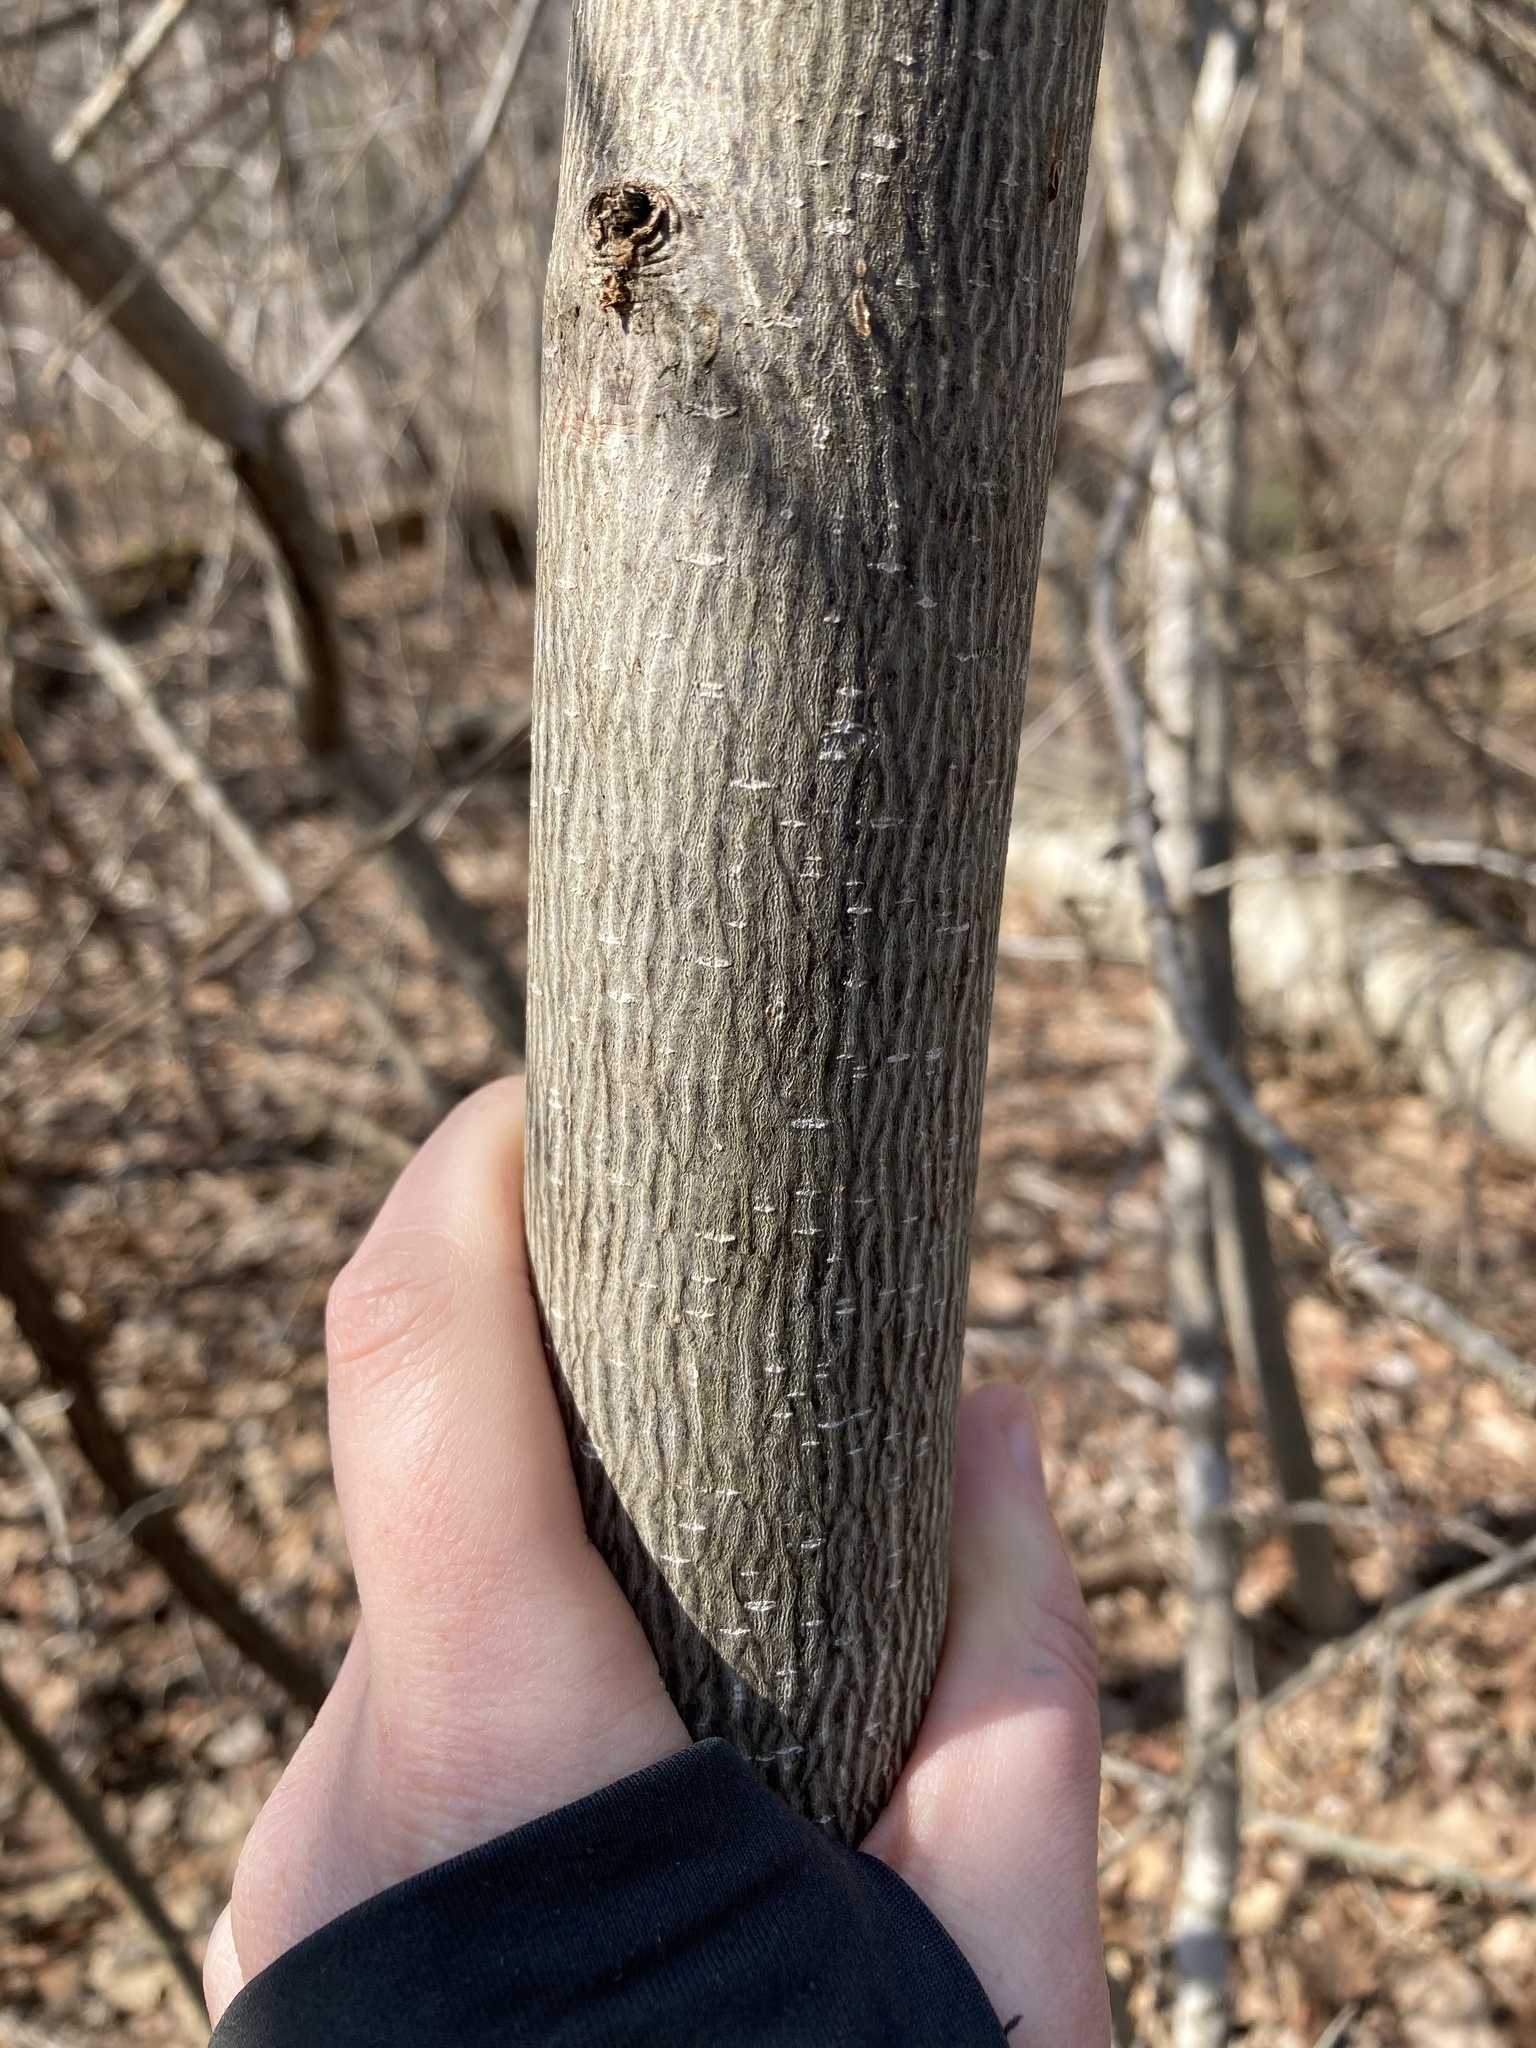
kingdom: Plantae
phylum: Tracheophyta
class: Magnoliopsida
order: Magnoliales
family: Magnoliaceae
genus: Liriodendron
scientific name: Liriodendron tulipifera
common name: Tulip tree
